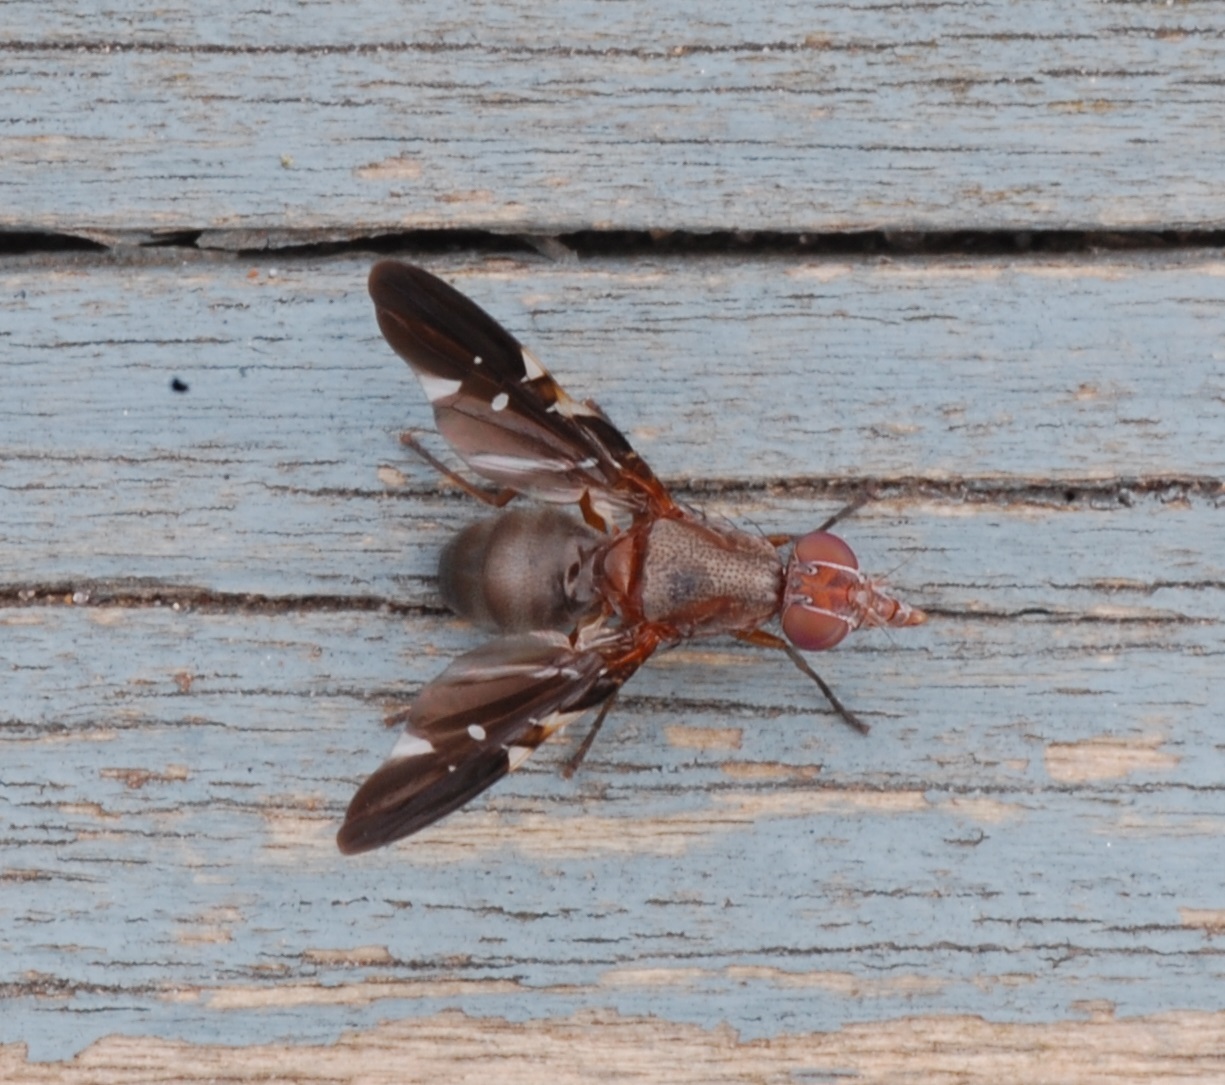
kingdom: Animalia
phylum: Arthropoda
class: Insecta
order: Diptera
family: Ulidiidae
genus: Delphinia
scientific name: Delphinia picta
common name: Common picture-winged fly
